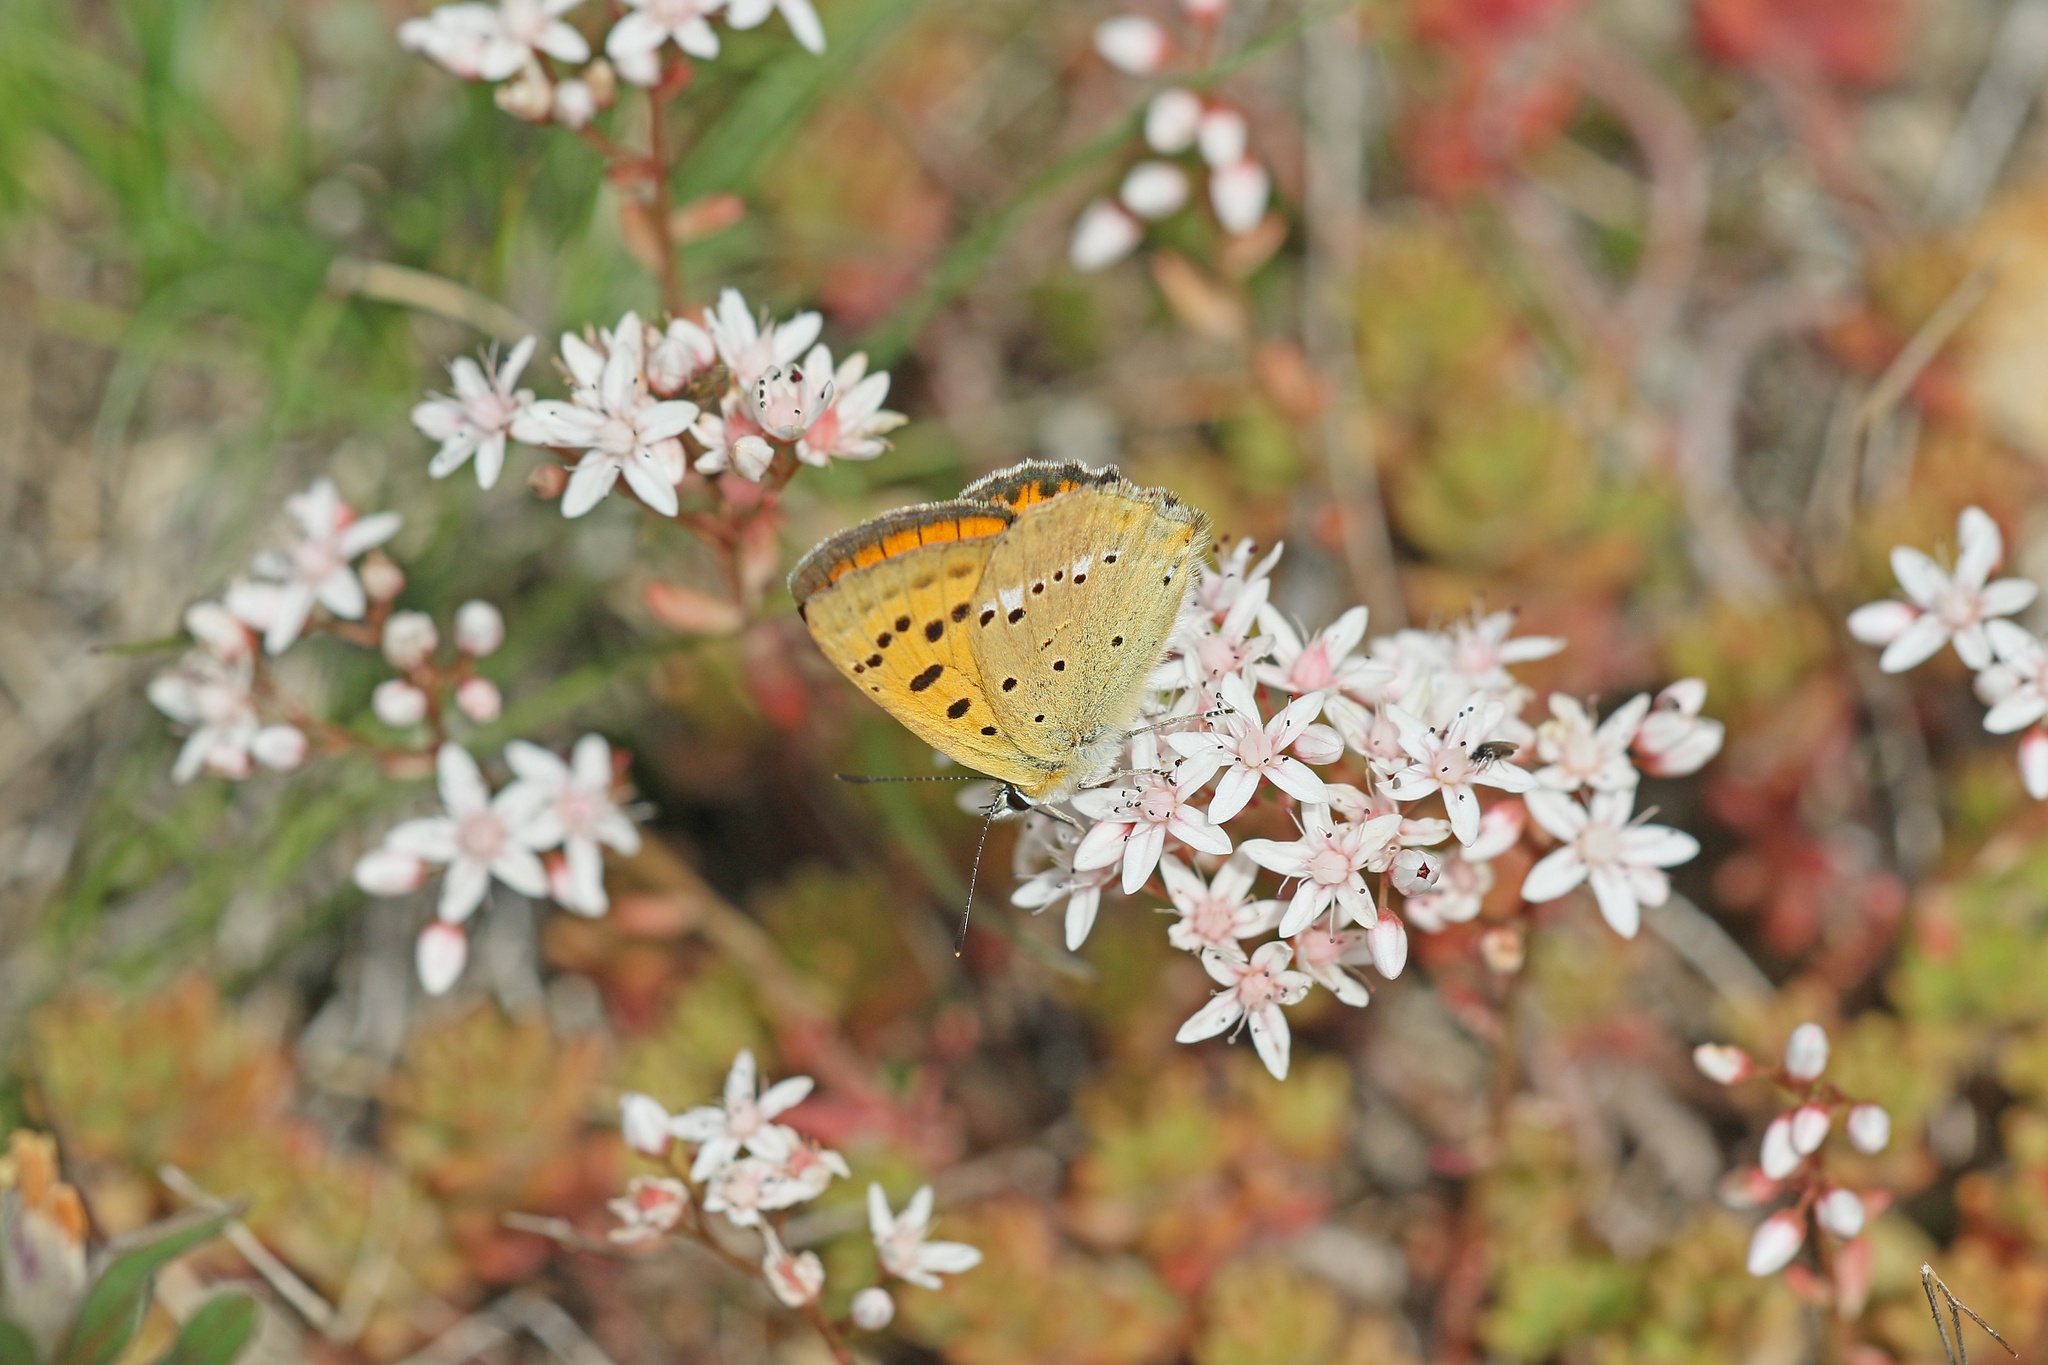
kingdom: Animalia
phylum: Arthropoda
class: Insecta
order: Lepidoptera
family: Lycaenidae
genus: Lycaena
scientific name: Lycaena virgaureae
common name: Scarce copper
